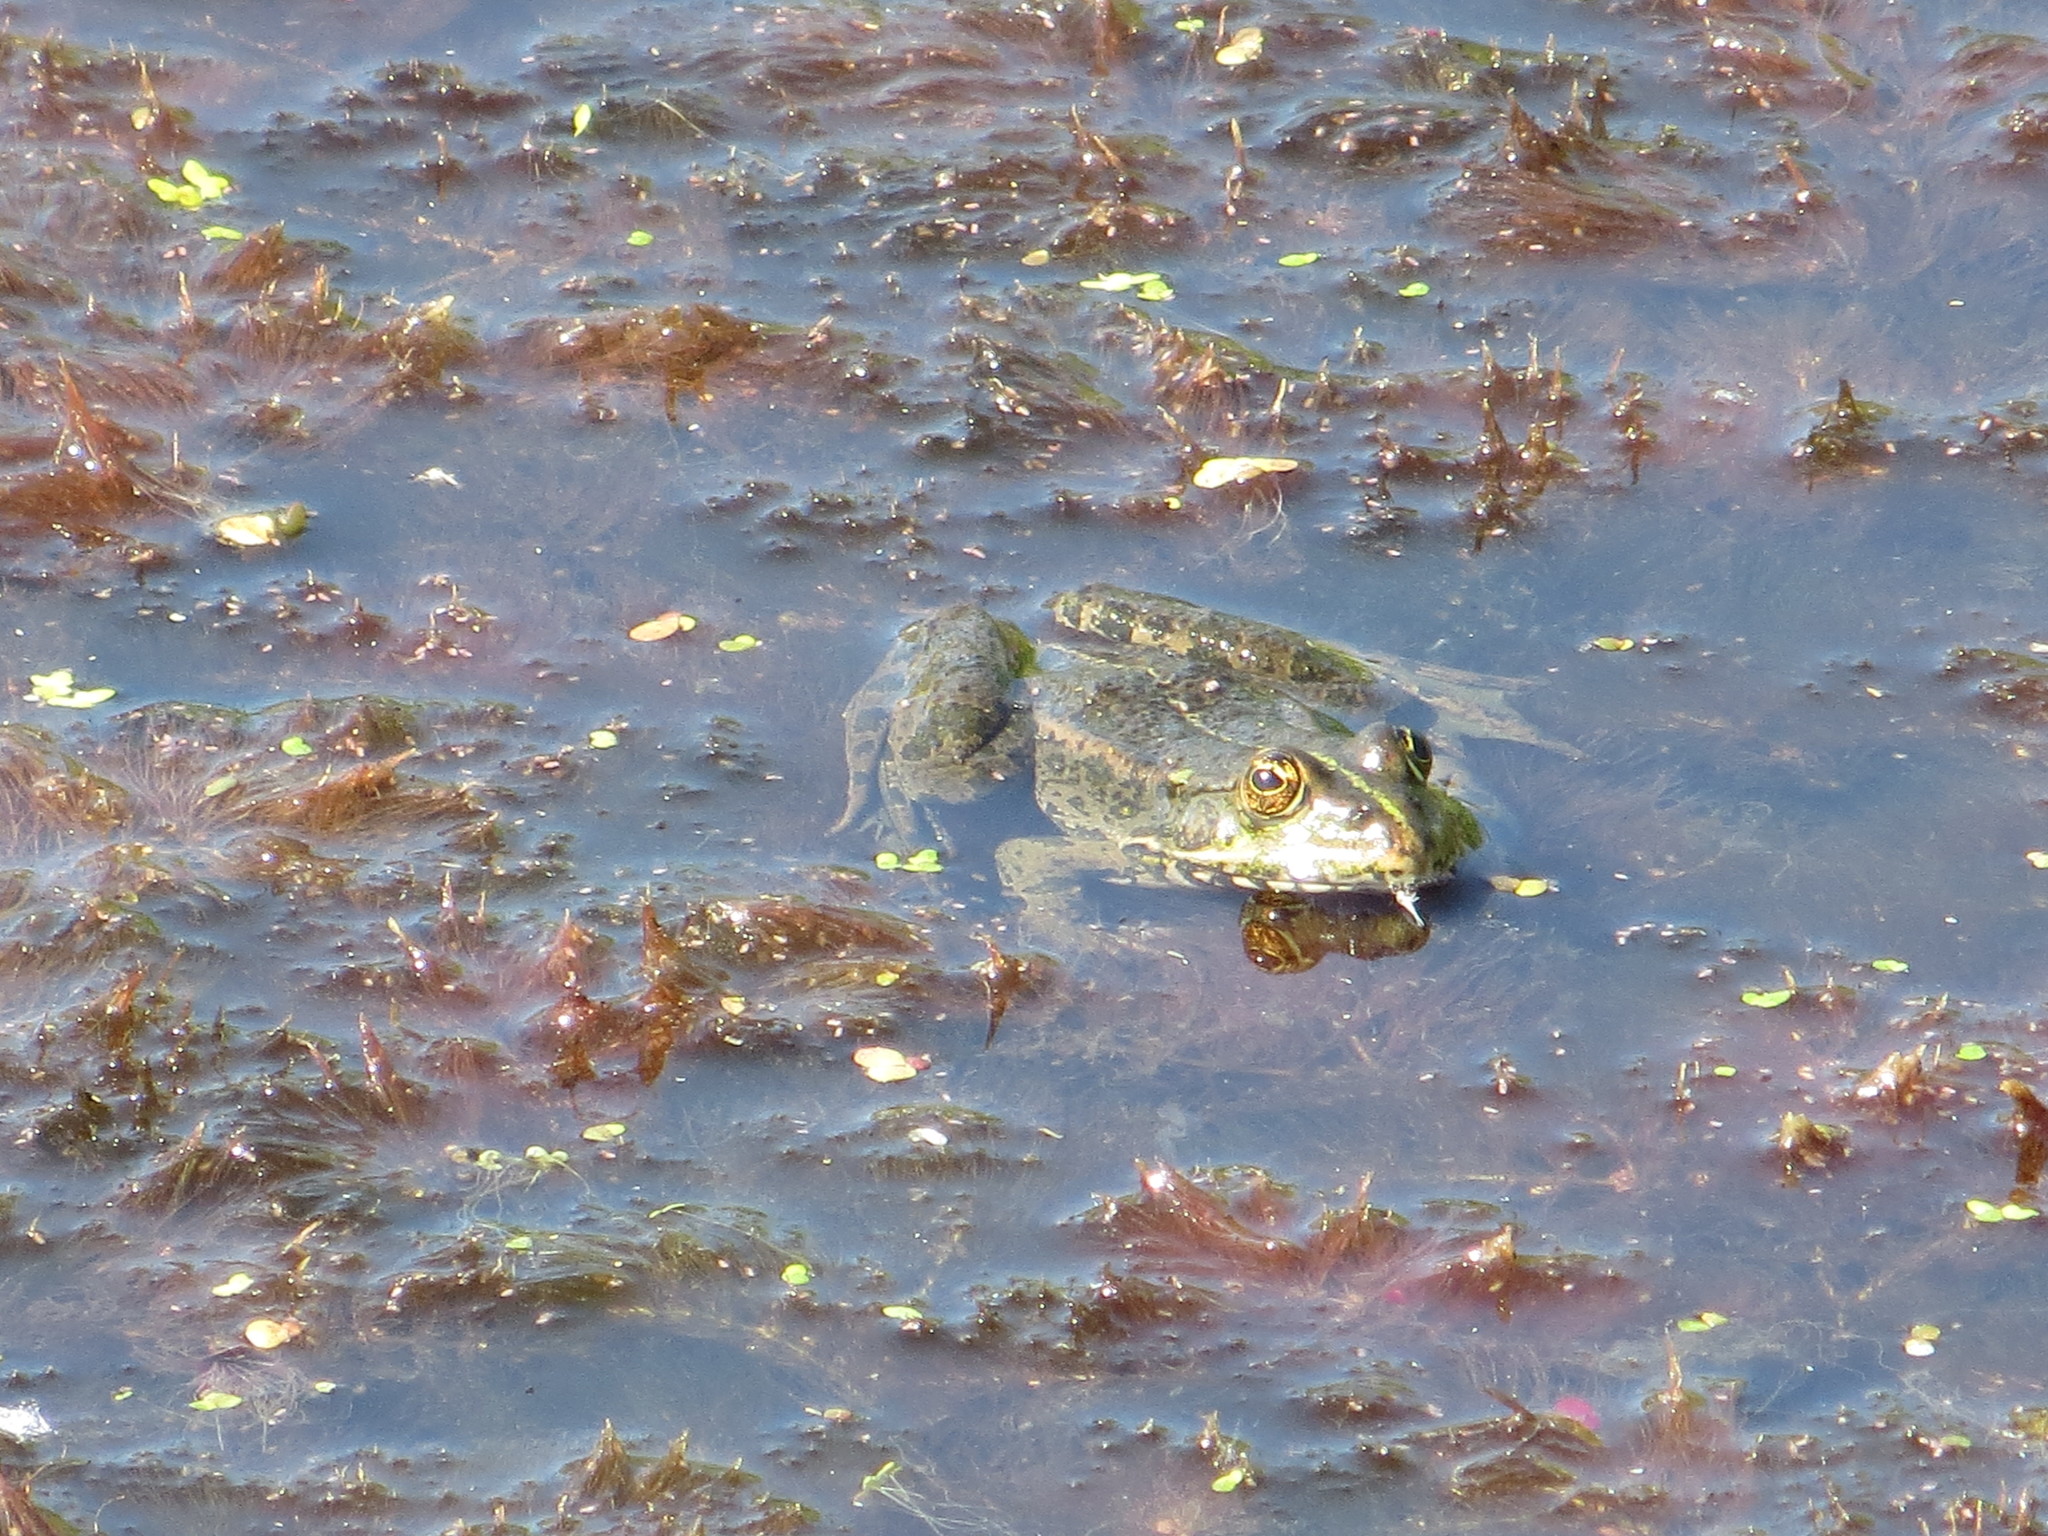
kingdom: Animalia
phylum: Chordata
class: Amphibia
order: Anura
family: Ranidae
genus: Pelophylax
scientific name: Pelophylax ridibundus
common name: Marsh frog
